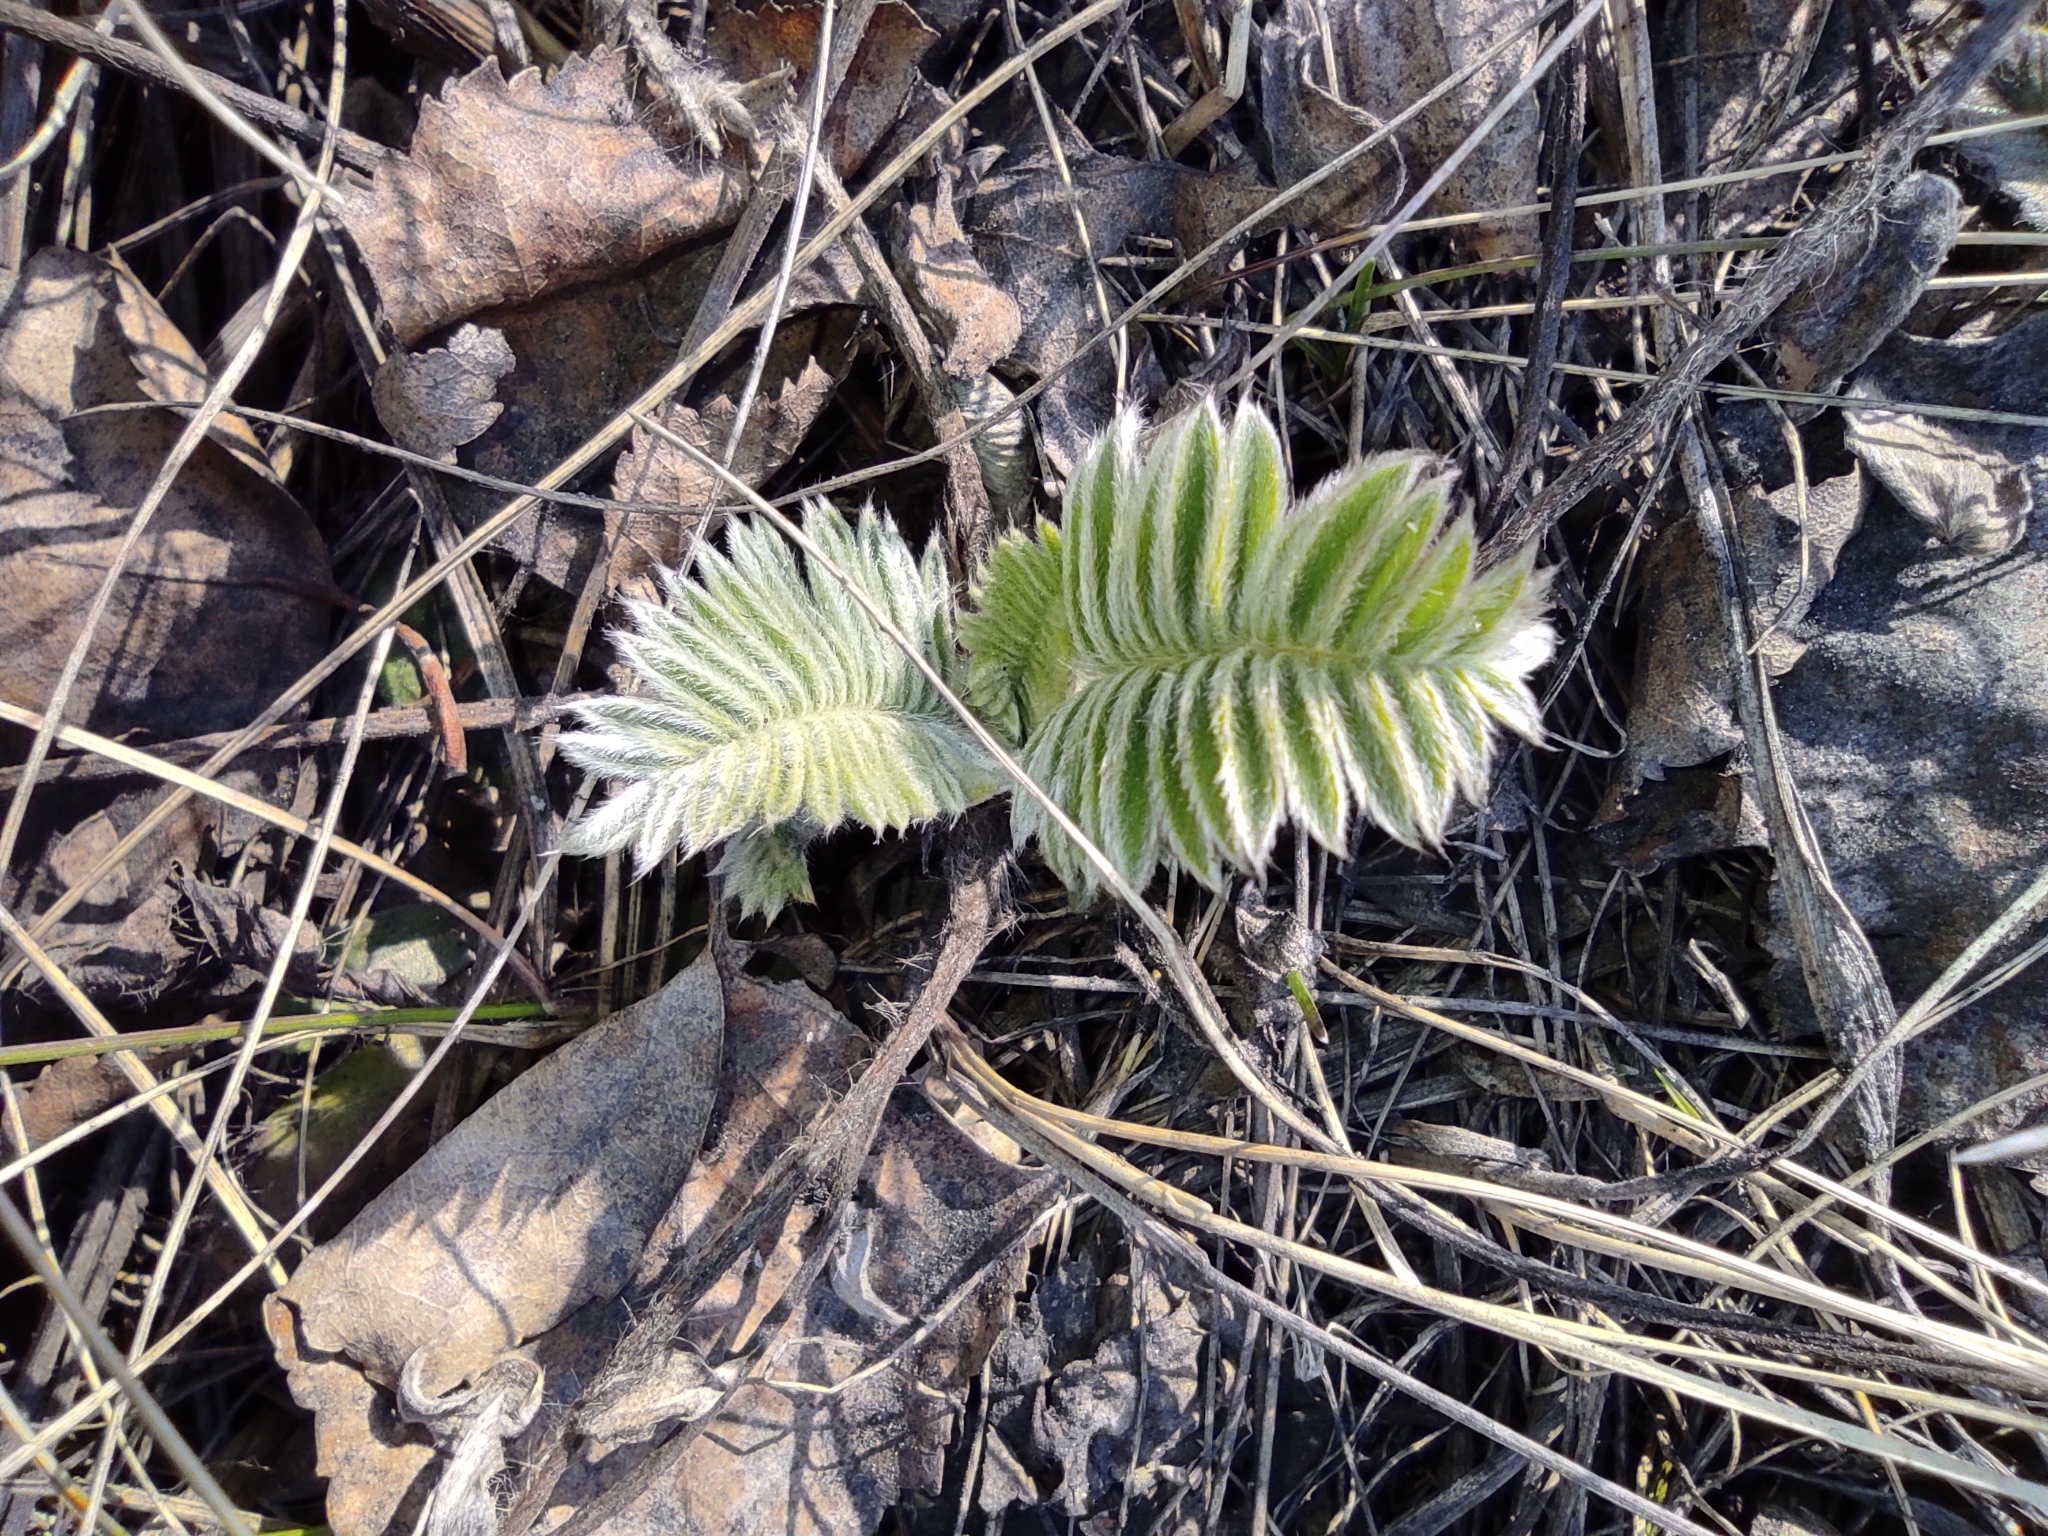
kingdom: Plantae
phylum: Tracheophyta
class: Magnoliopsida
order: Fabales
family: Fabaceae
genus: Oxytropis
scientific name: Oxytropis campanulata
